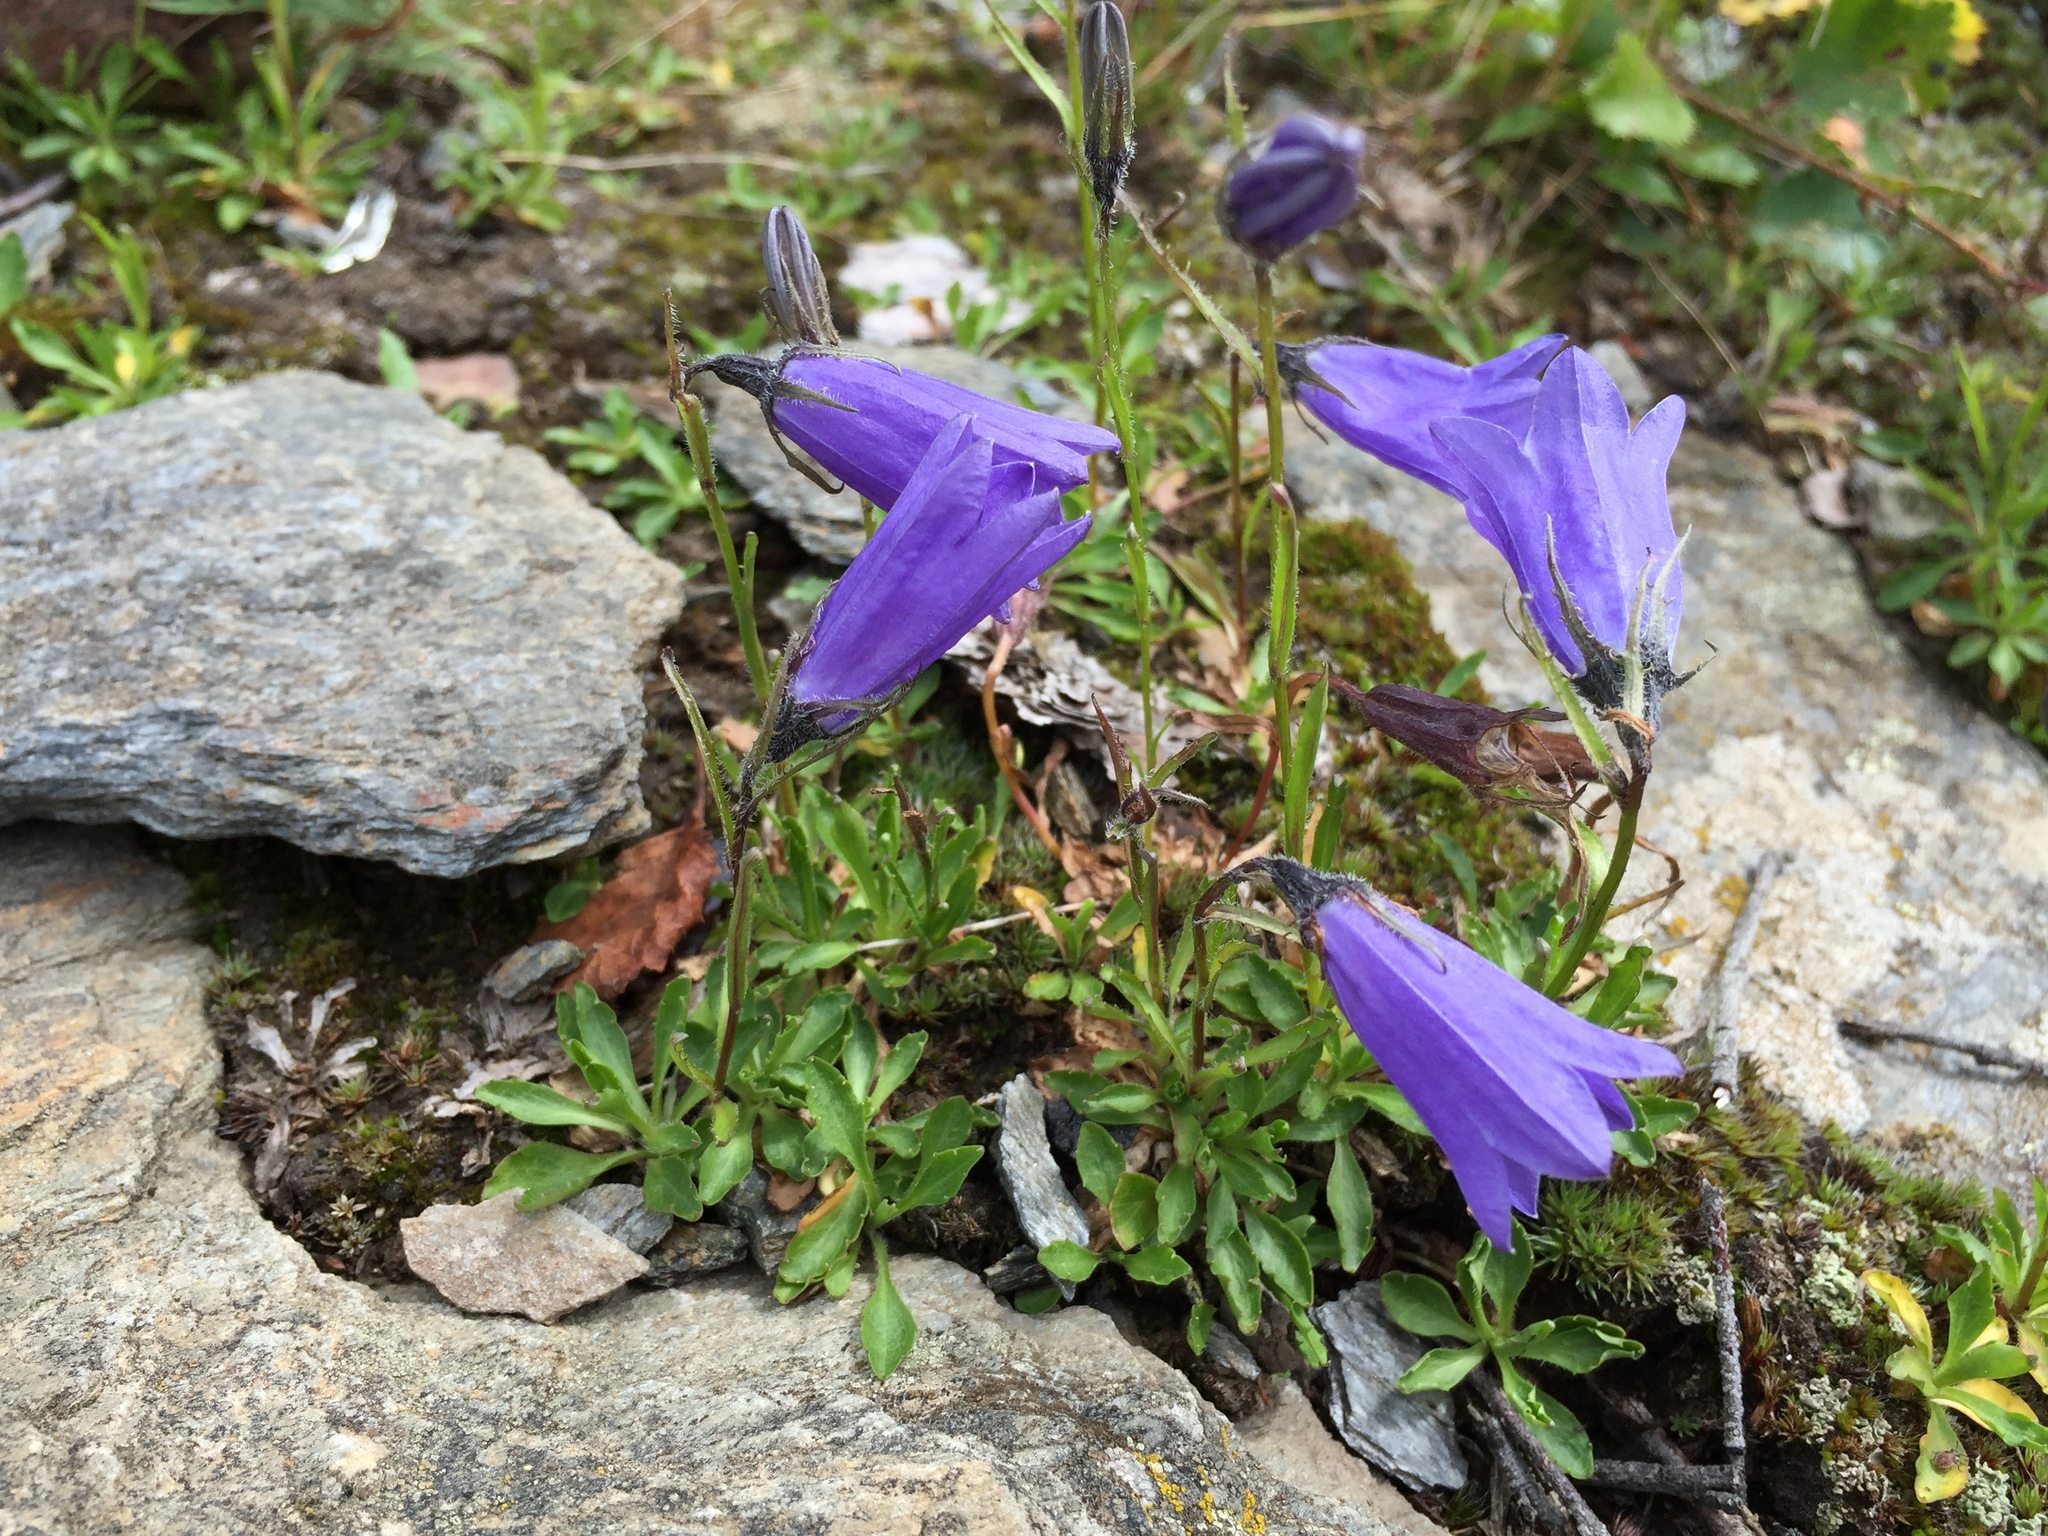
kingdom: Plantae
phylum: Tracheophyta
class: Magnoliopsida
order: Asterales
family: Campanulaceae
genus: Campanula
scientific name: Campanula lasiocarpa
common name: Mountain harebell
